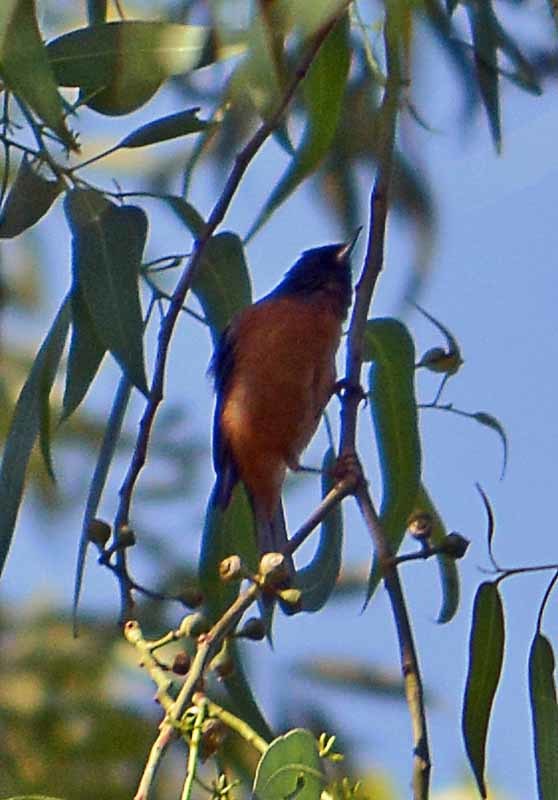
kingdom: Animalia
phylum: Chordata
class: Aves
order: Passeriformes
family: Thraupidae
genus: Diglossa
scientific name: Diglossa baritula
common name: Cinnamon-bellied flowerpiercer
